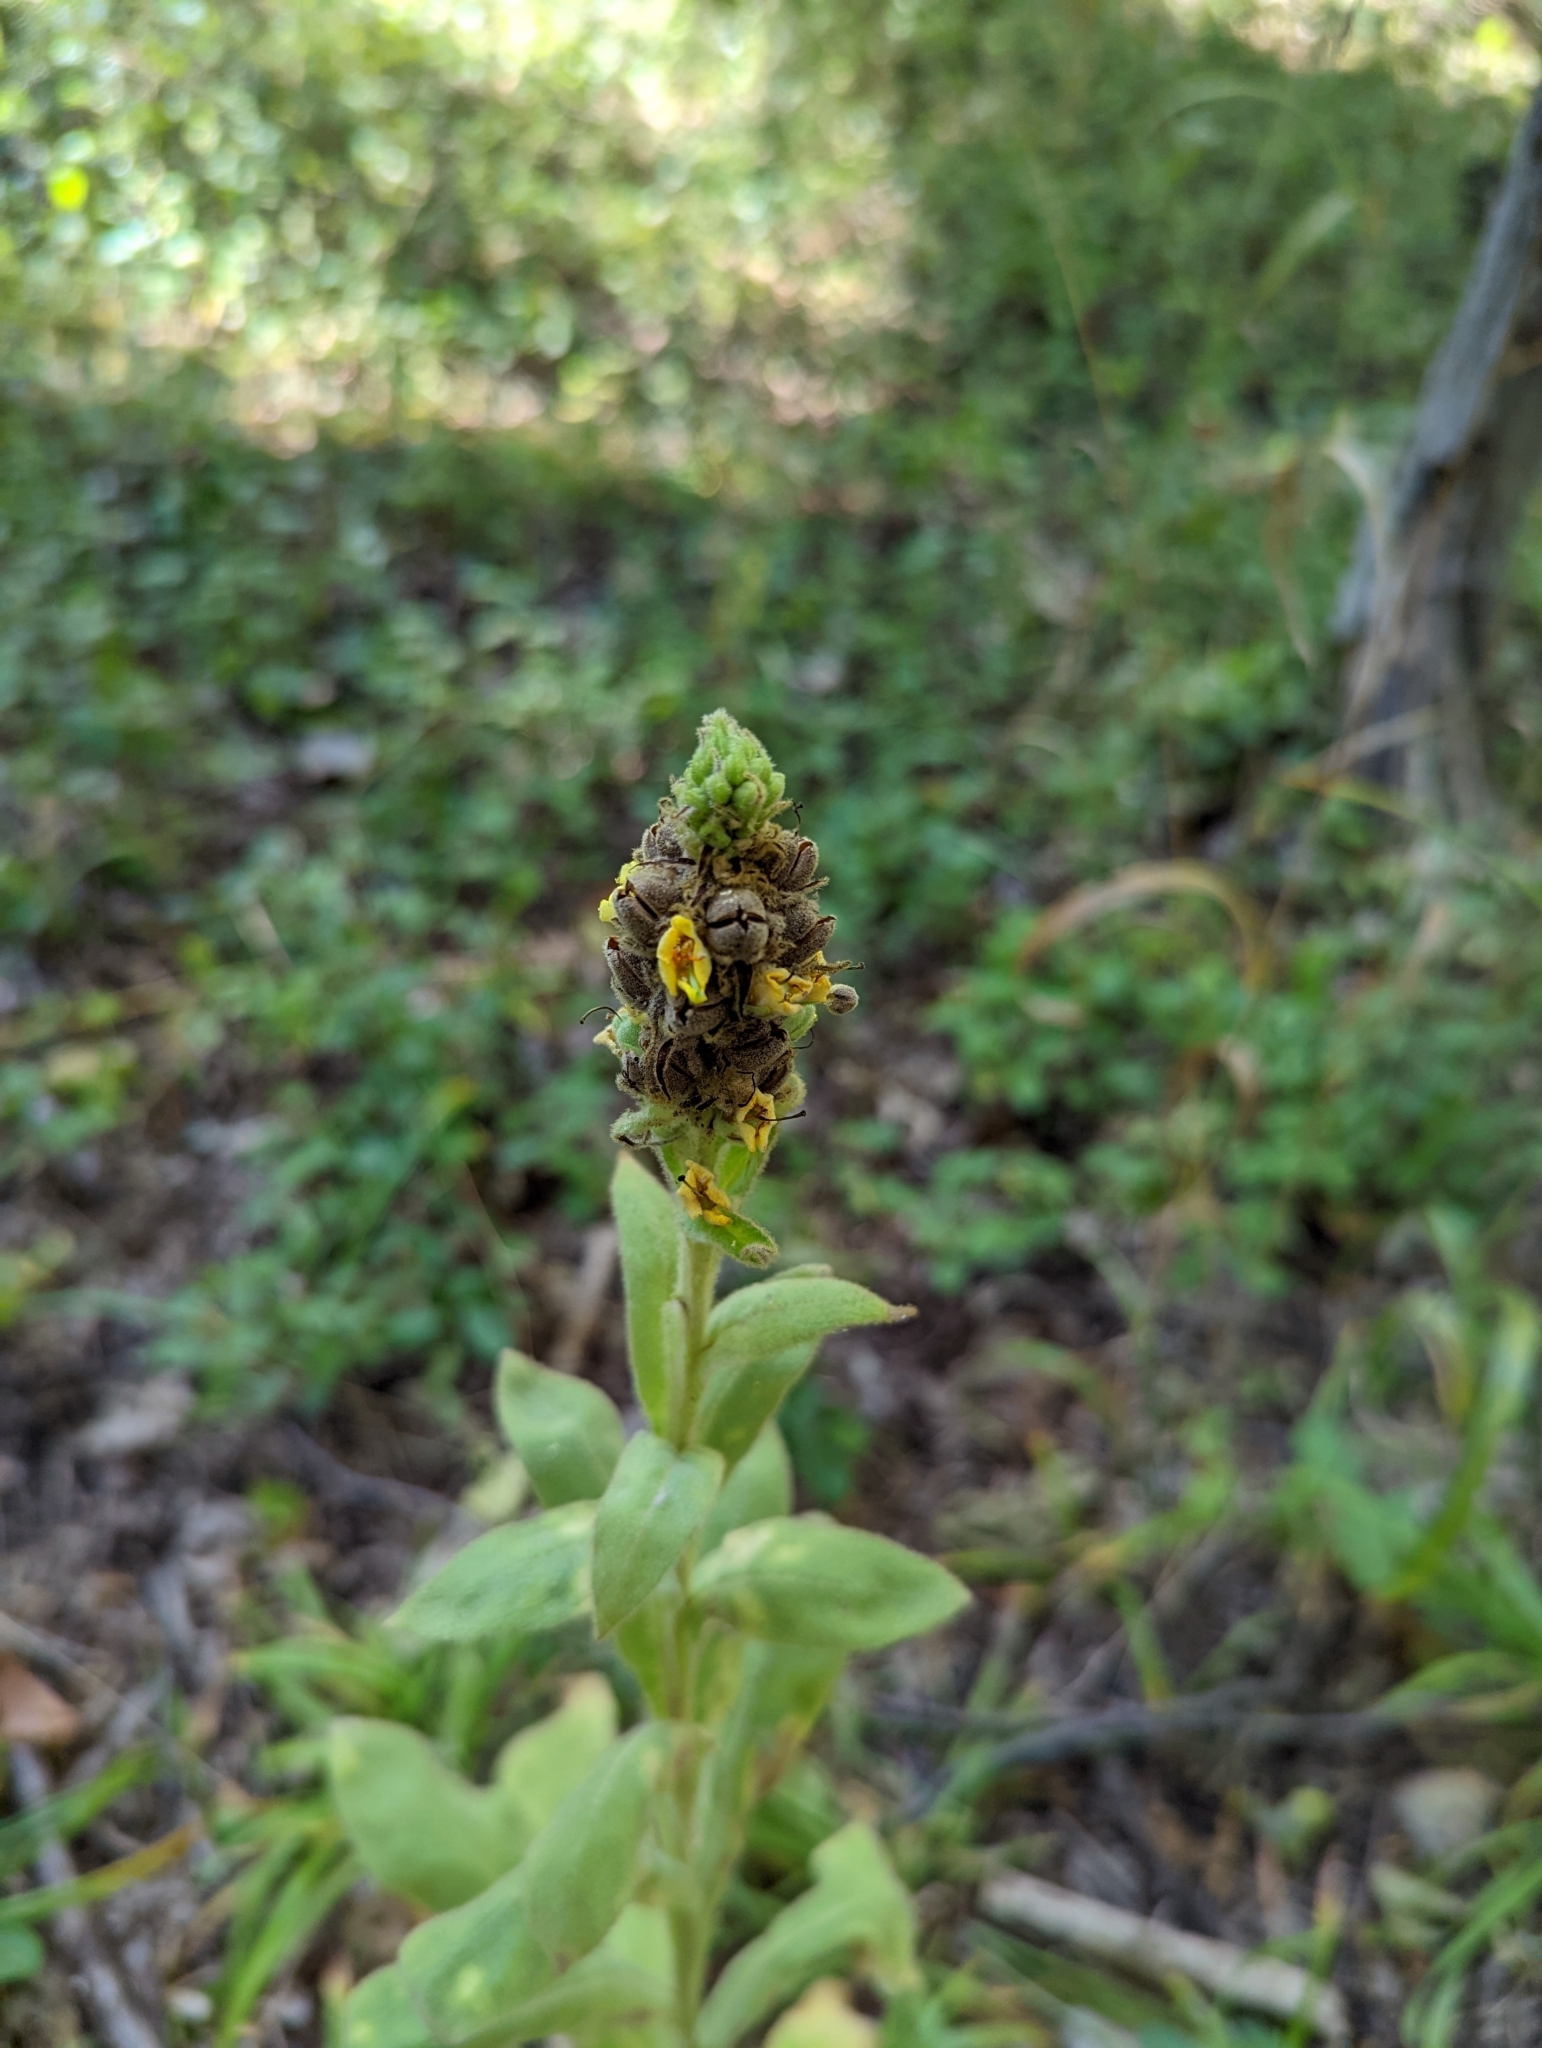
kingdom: Plantae
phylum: Tracheophyta
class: Magnoliopsida
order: Lamiales
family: Scrophulariaceae
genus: Verbascum
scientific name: Verbascum thapsus
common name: Common mullein
